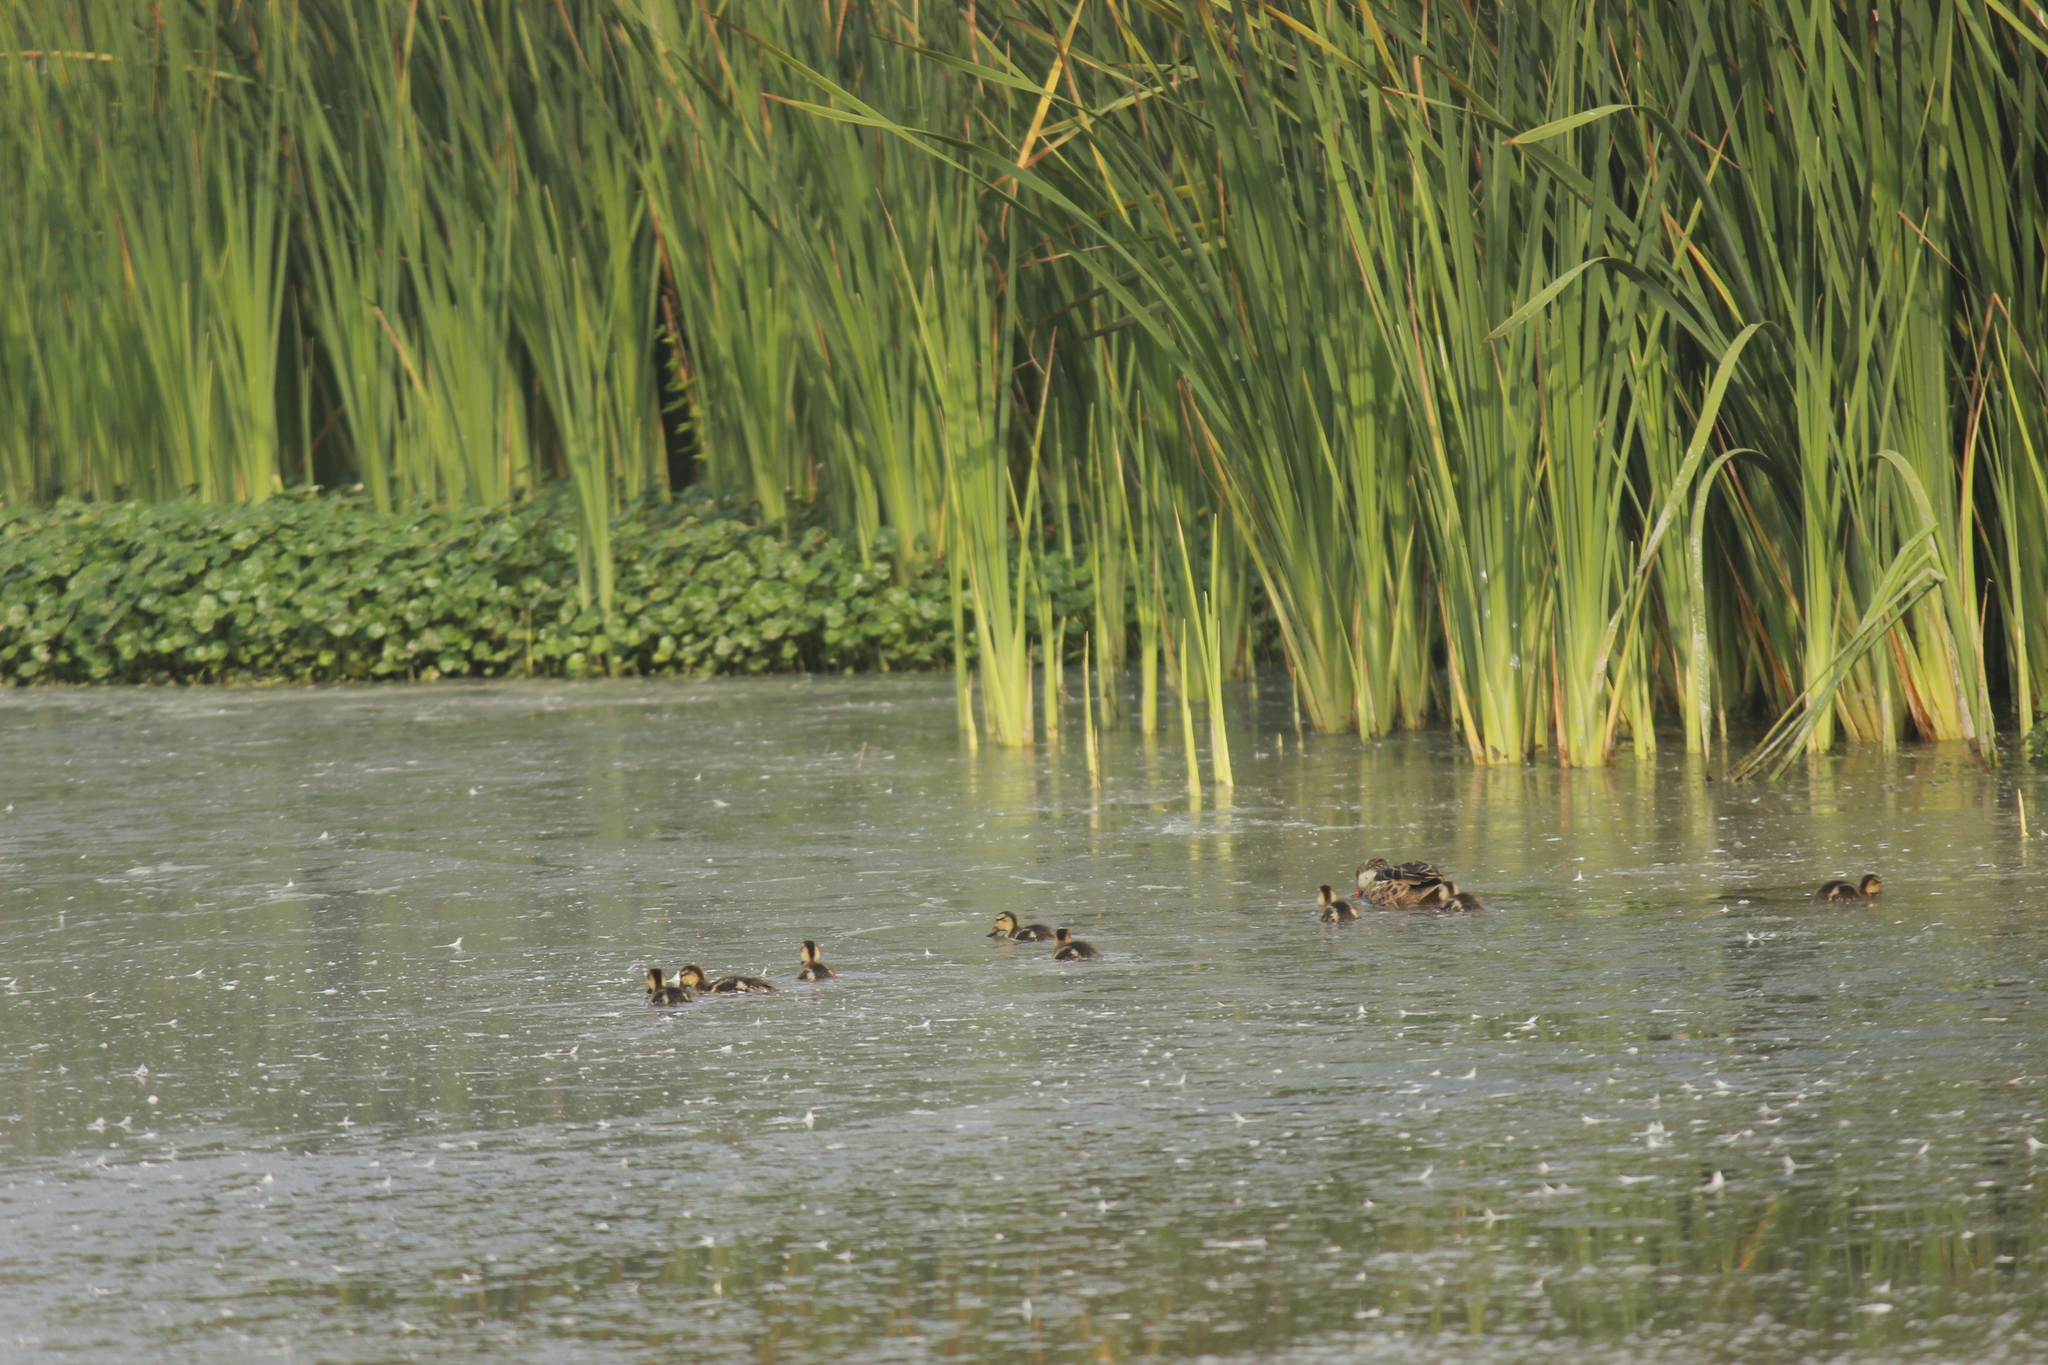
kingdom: Animalia
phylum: Chordata
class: Aves
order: Anseriformes
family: Anatidae
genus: Anas
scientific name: Anas bahamensis
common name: White-cheeked pintail
